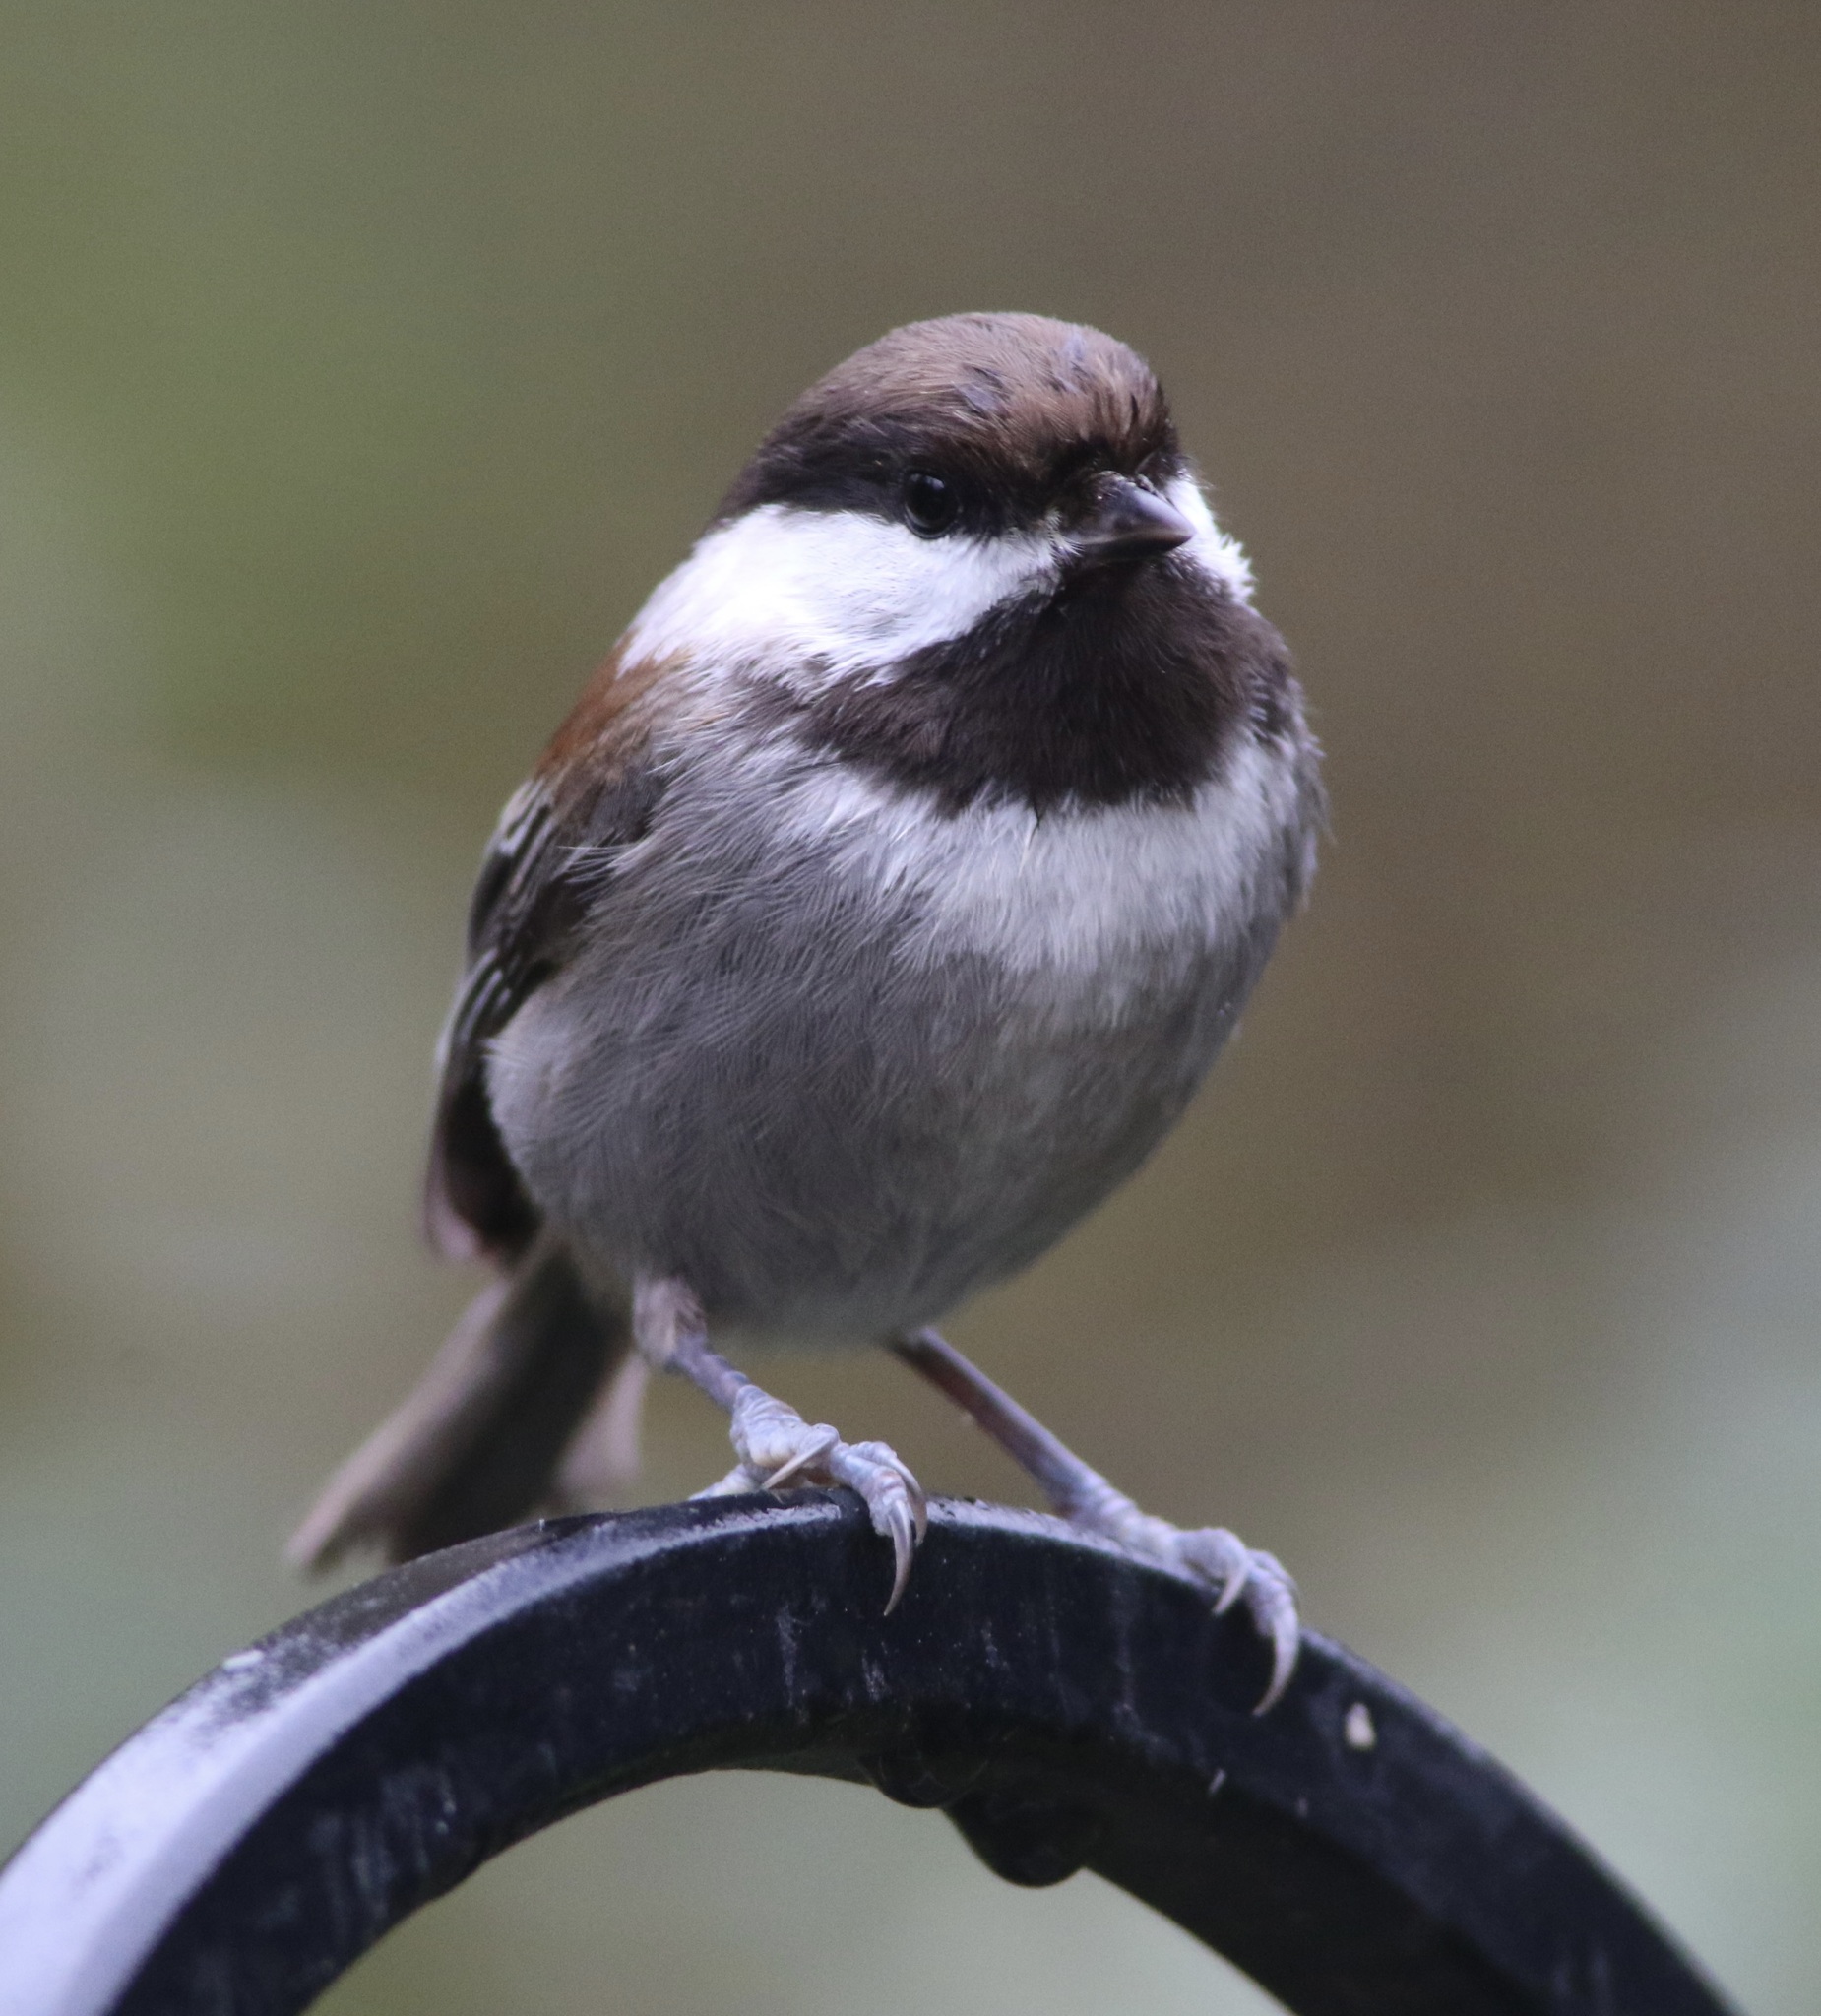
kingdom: Animalia
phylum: Chordata
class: Aves
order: Passeriformes
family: Paridae
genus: Poecile
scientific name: Poecile rufescens
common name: Chestnut-backed chickadee
